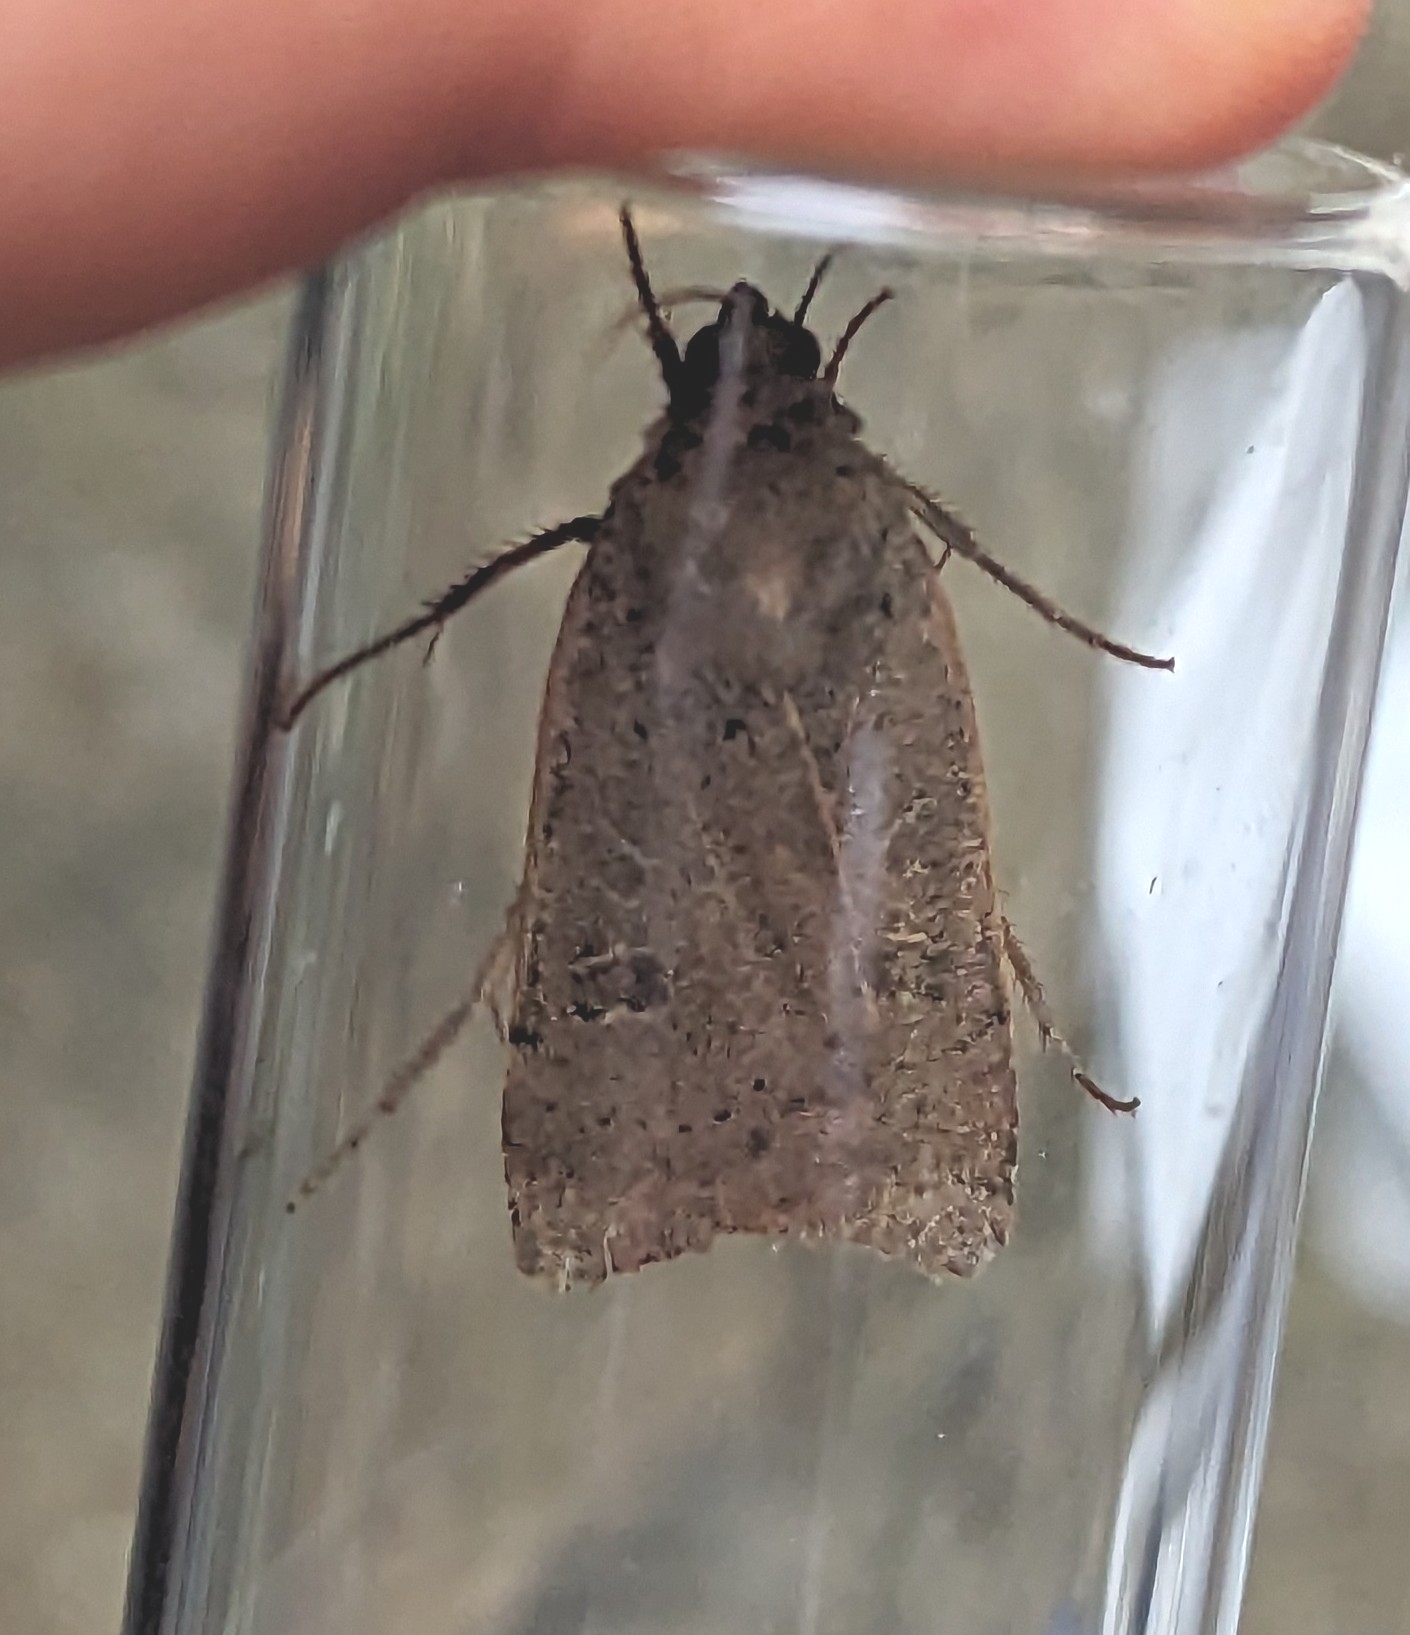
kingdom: Animalia
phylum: Arthropoda
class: Insecta
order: Lepidoptera
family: Noctuidae
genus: Noctua
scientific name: Noctua comes
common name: Lesser yellow underwing
